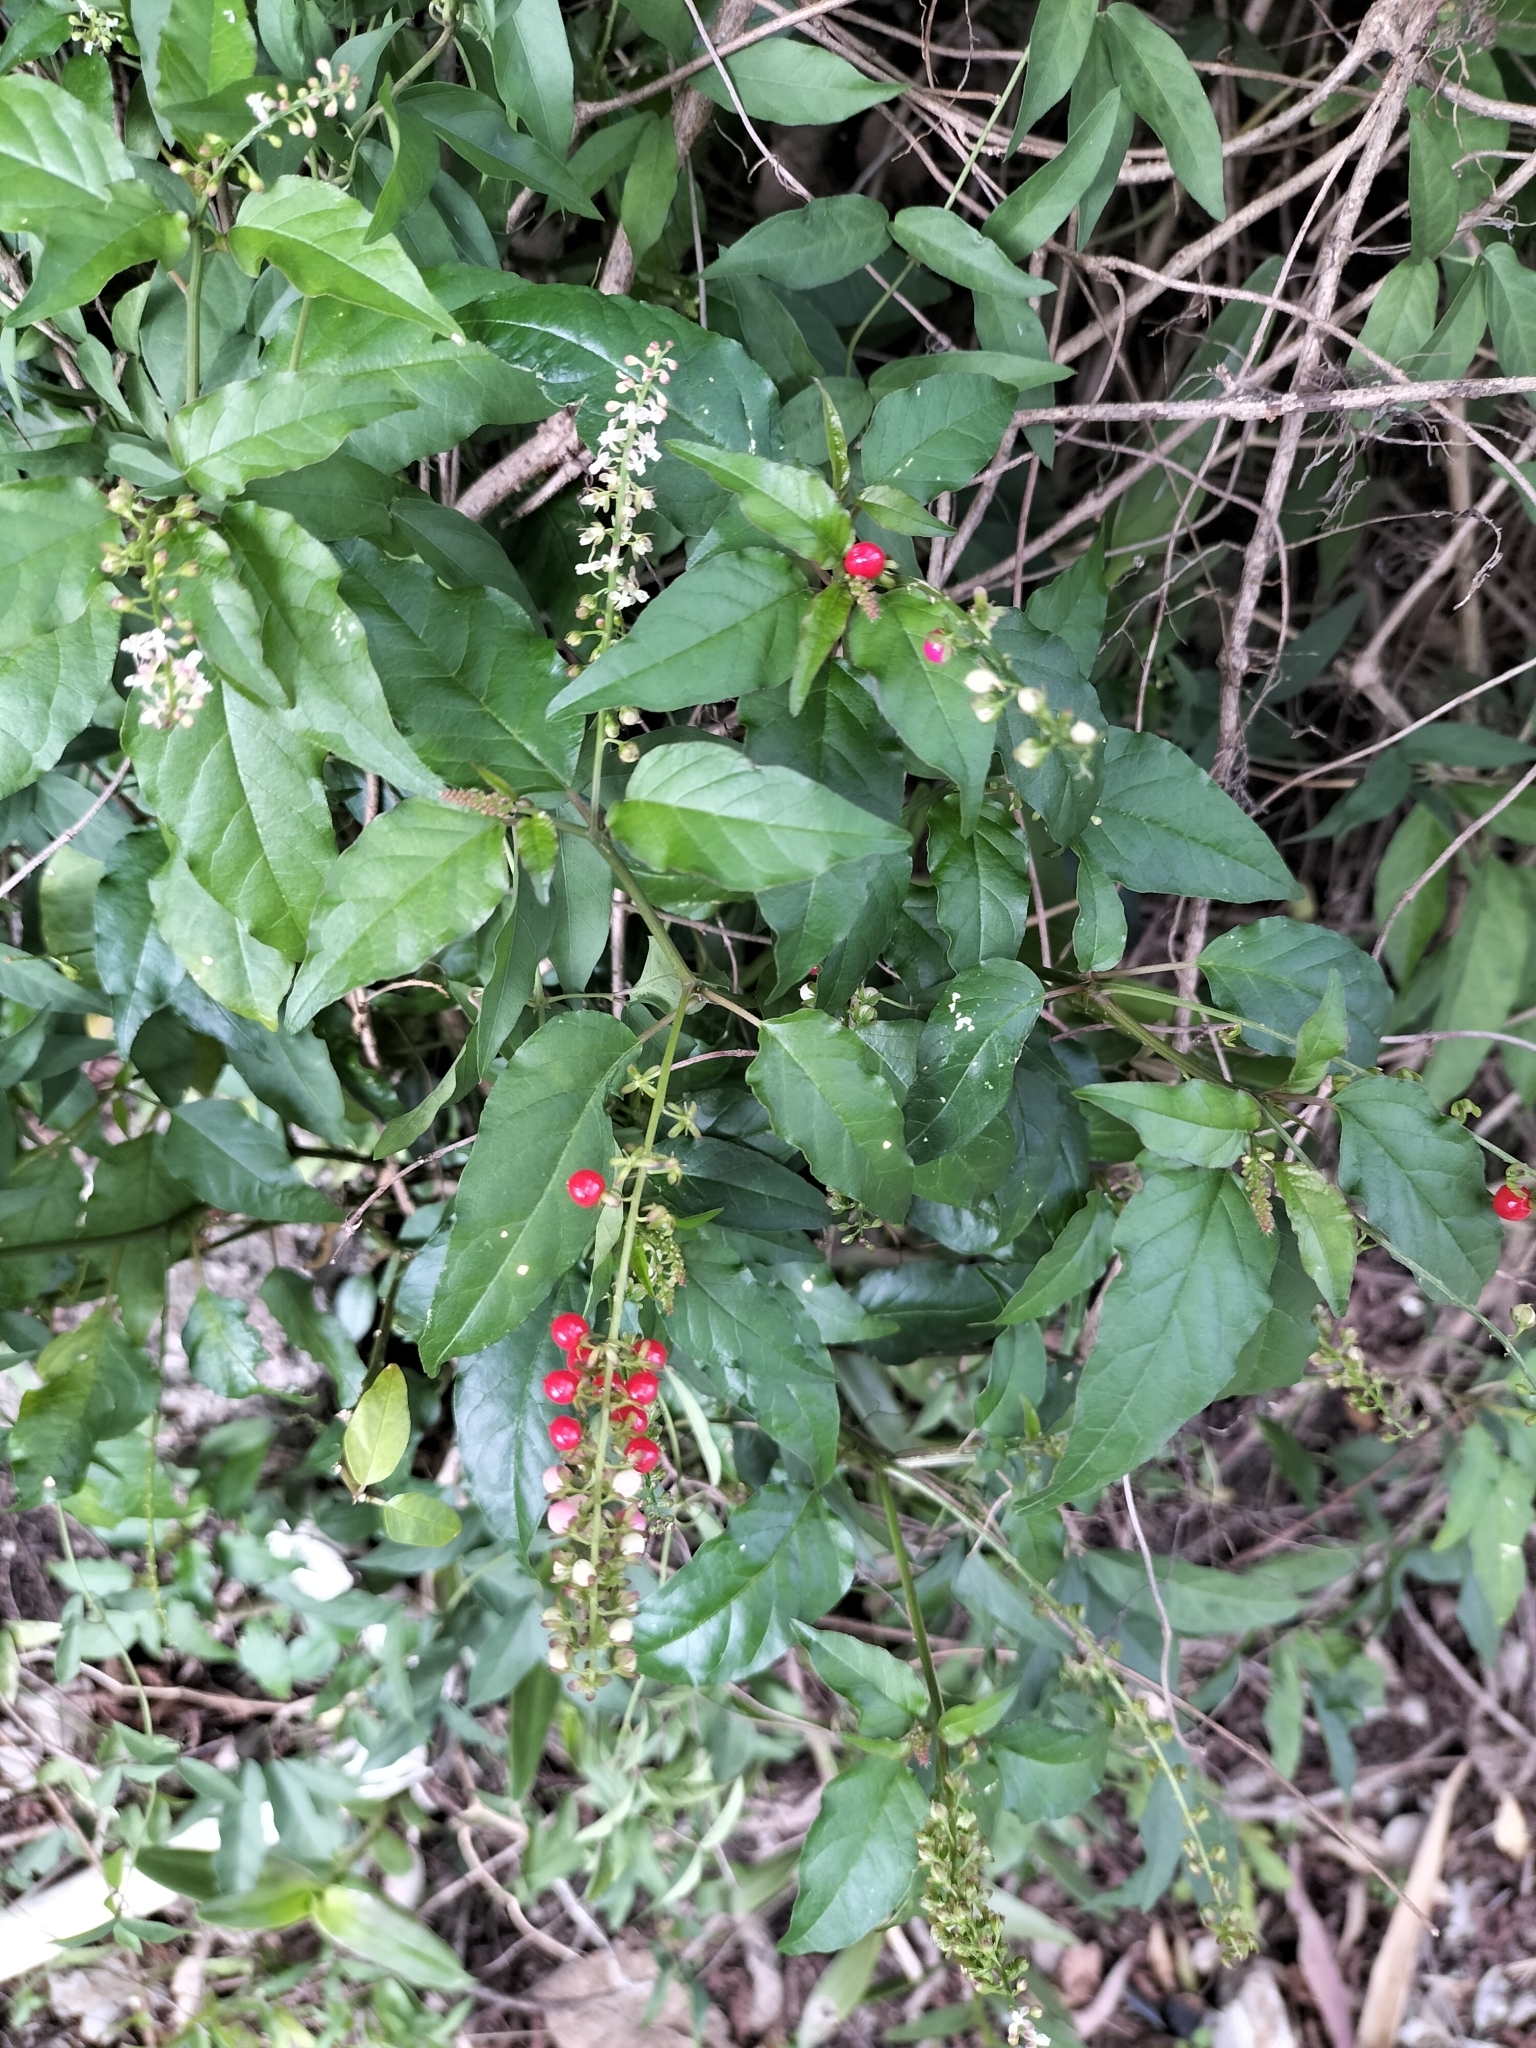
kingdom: Plantae
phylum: Tracheophyta
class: Magnoliopsida
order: Caryophyllales
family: Phytolaccaceae
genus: Rivina
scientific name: Rivina humilis
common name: Rougeplant
